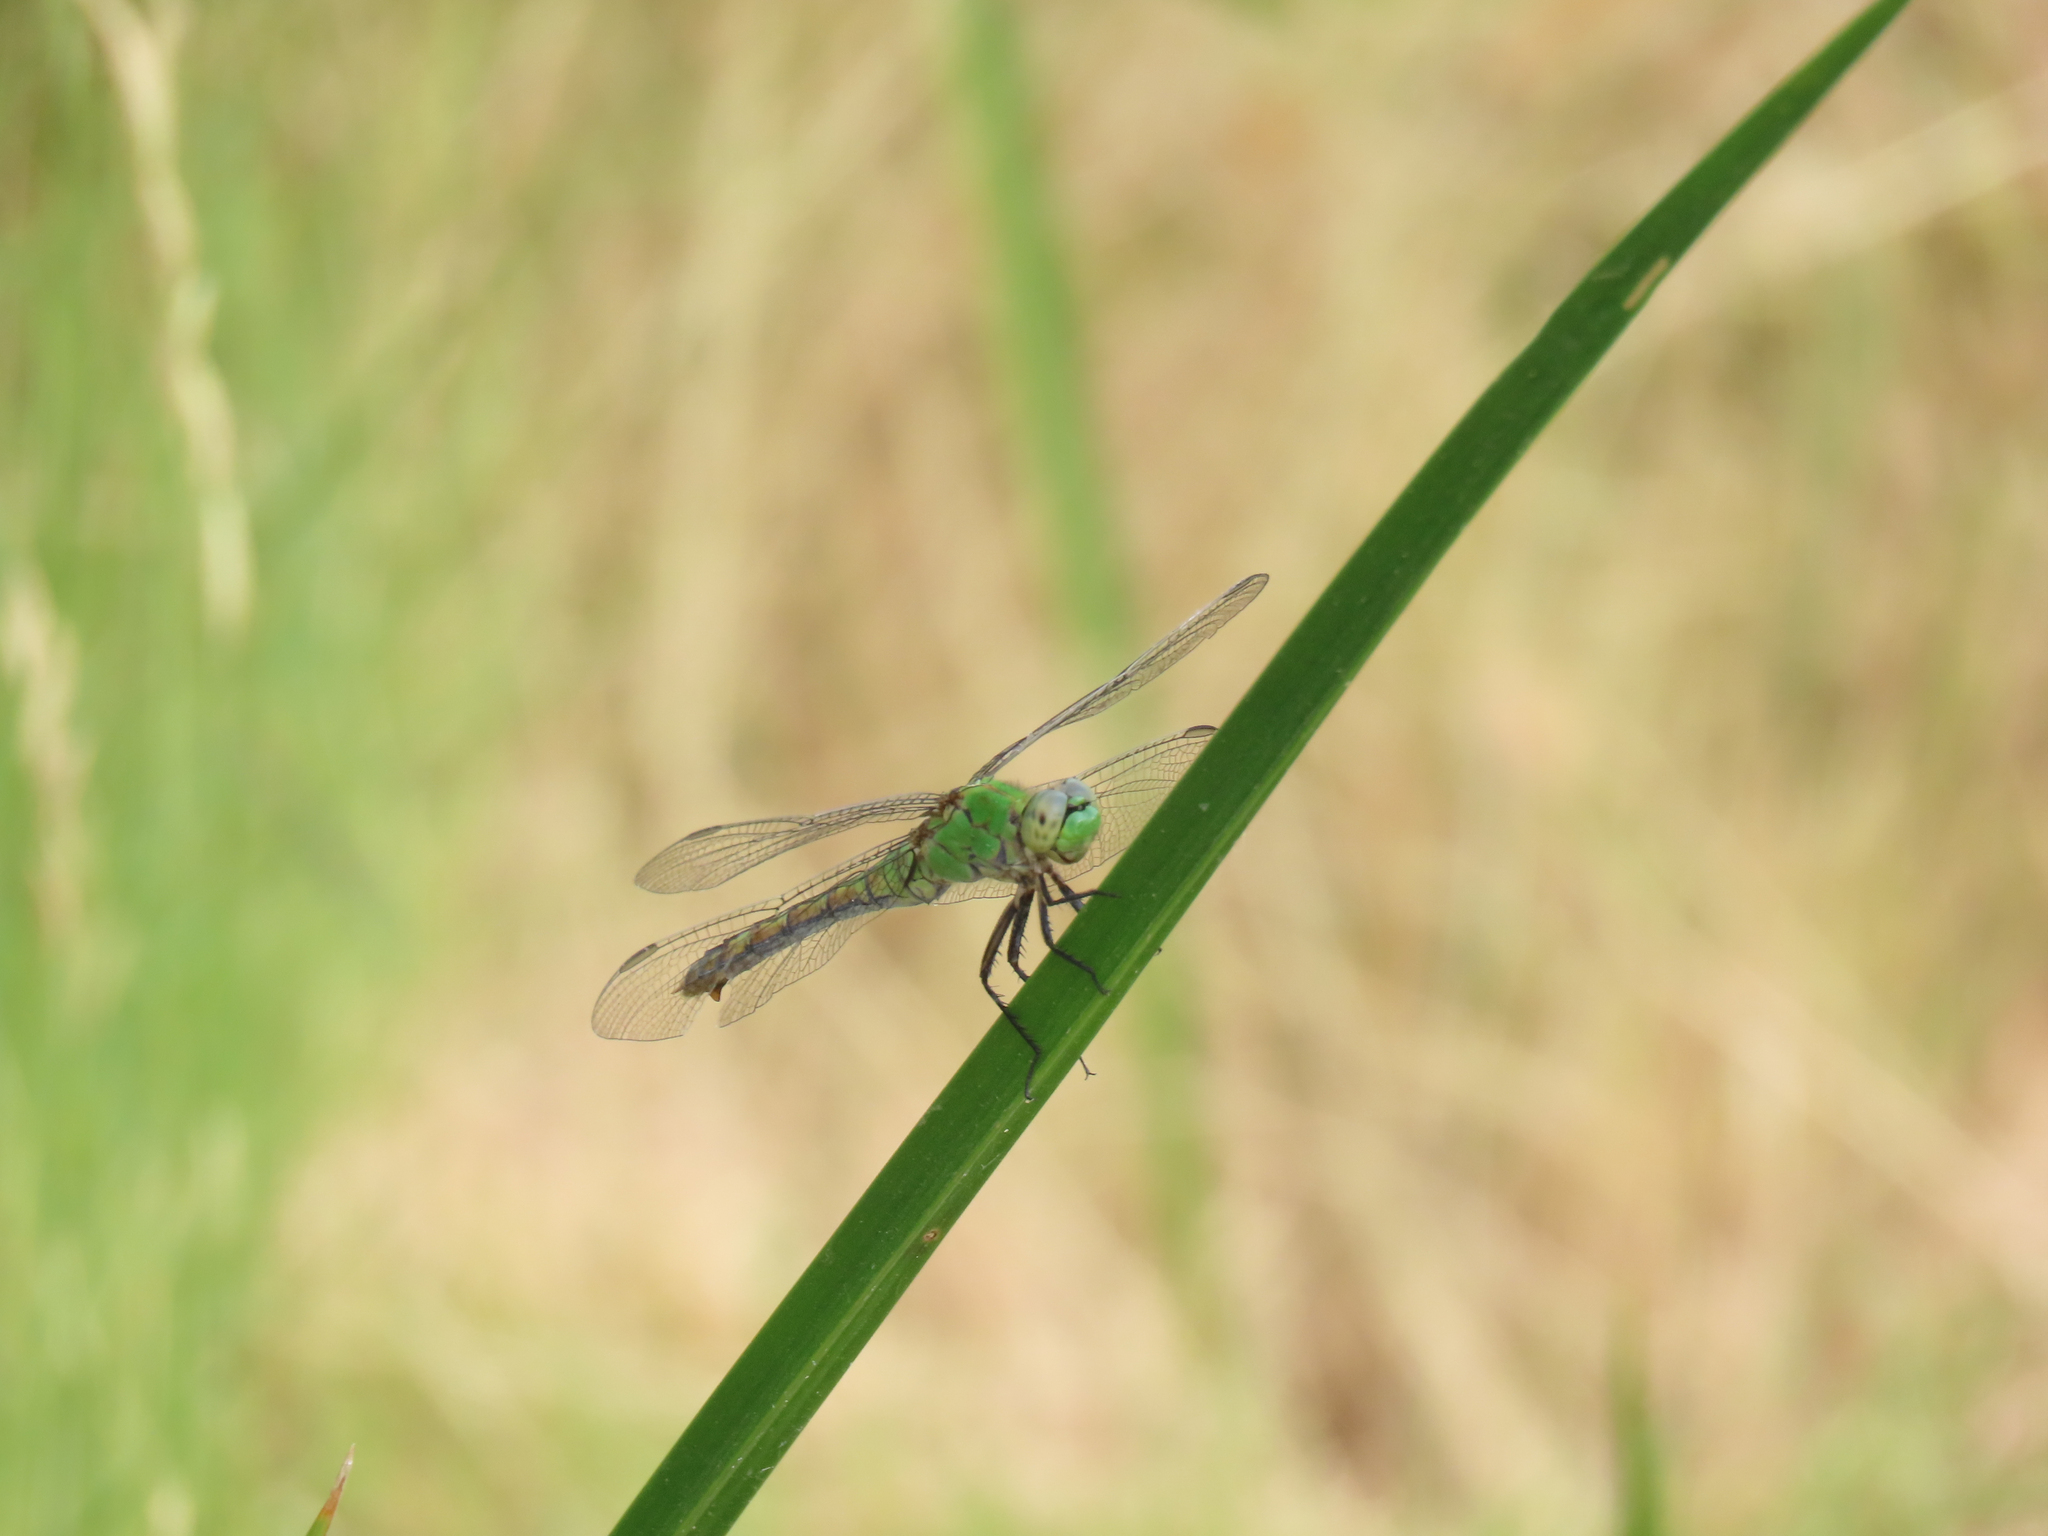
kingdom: Animalia
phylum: Arthropoda
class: Insecta
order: Odonata
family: Libellulidae
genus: Erythemis
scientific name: Erythemis collocata
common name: Western pondhawk
